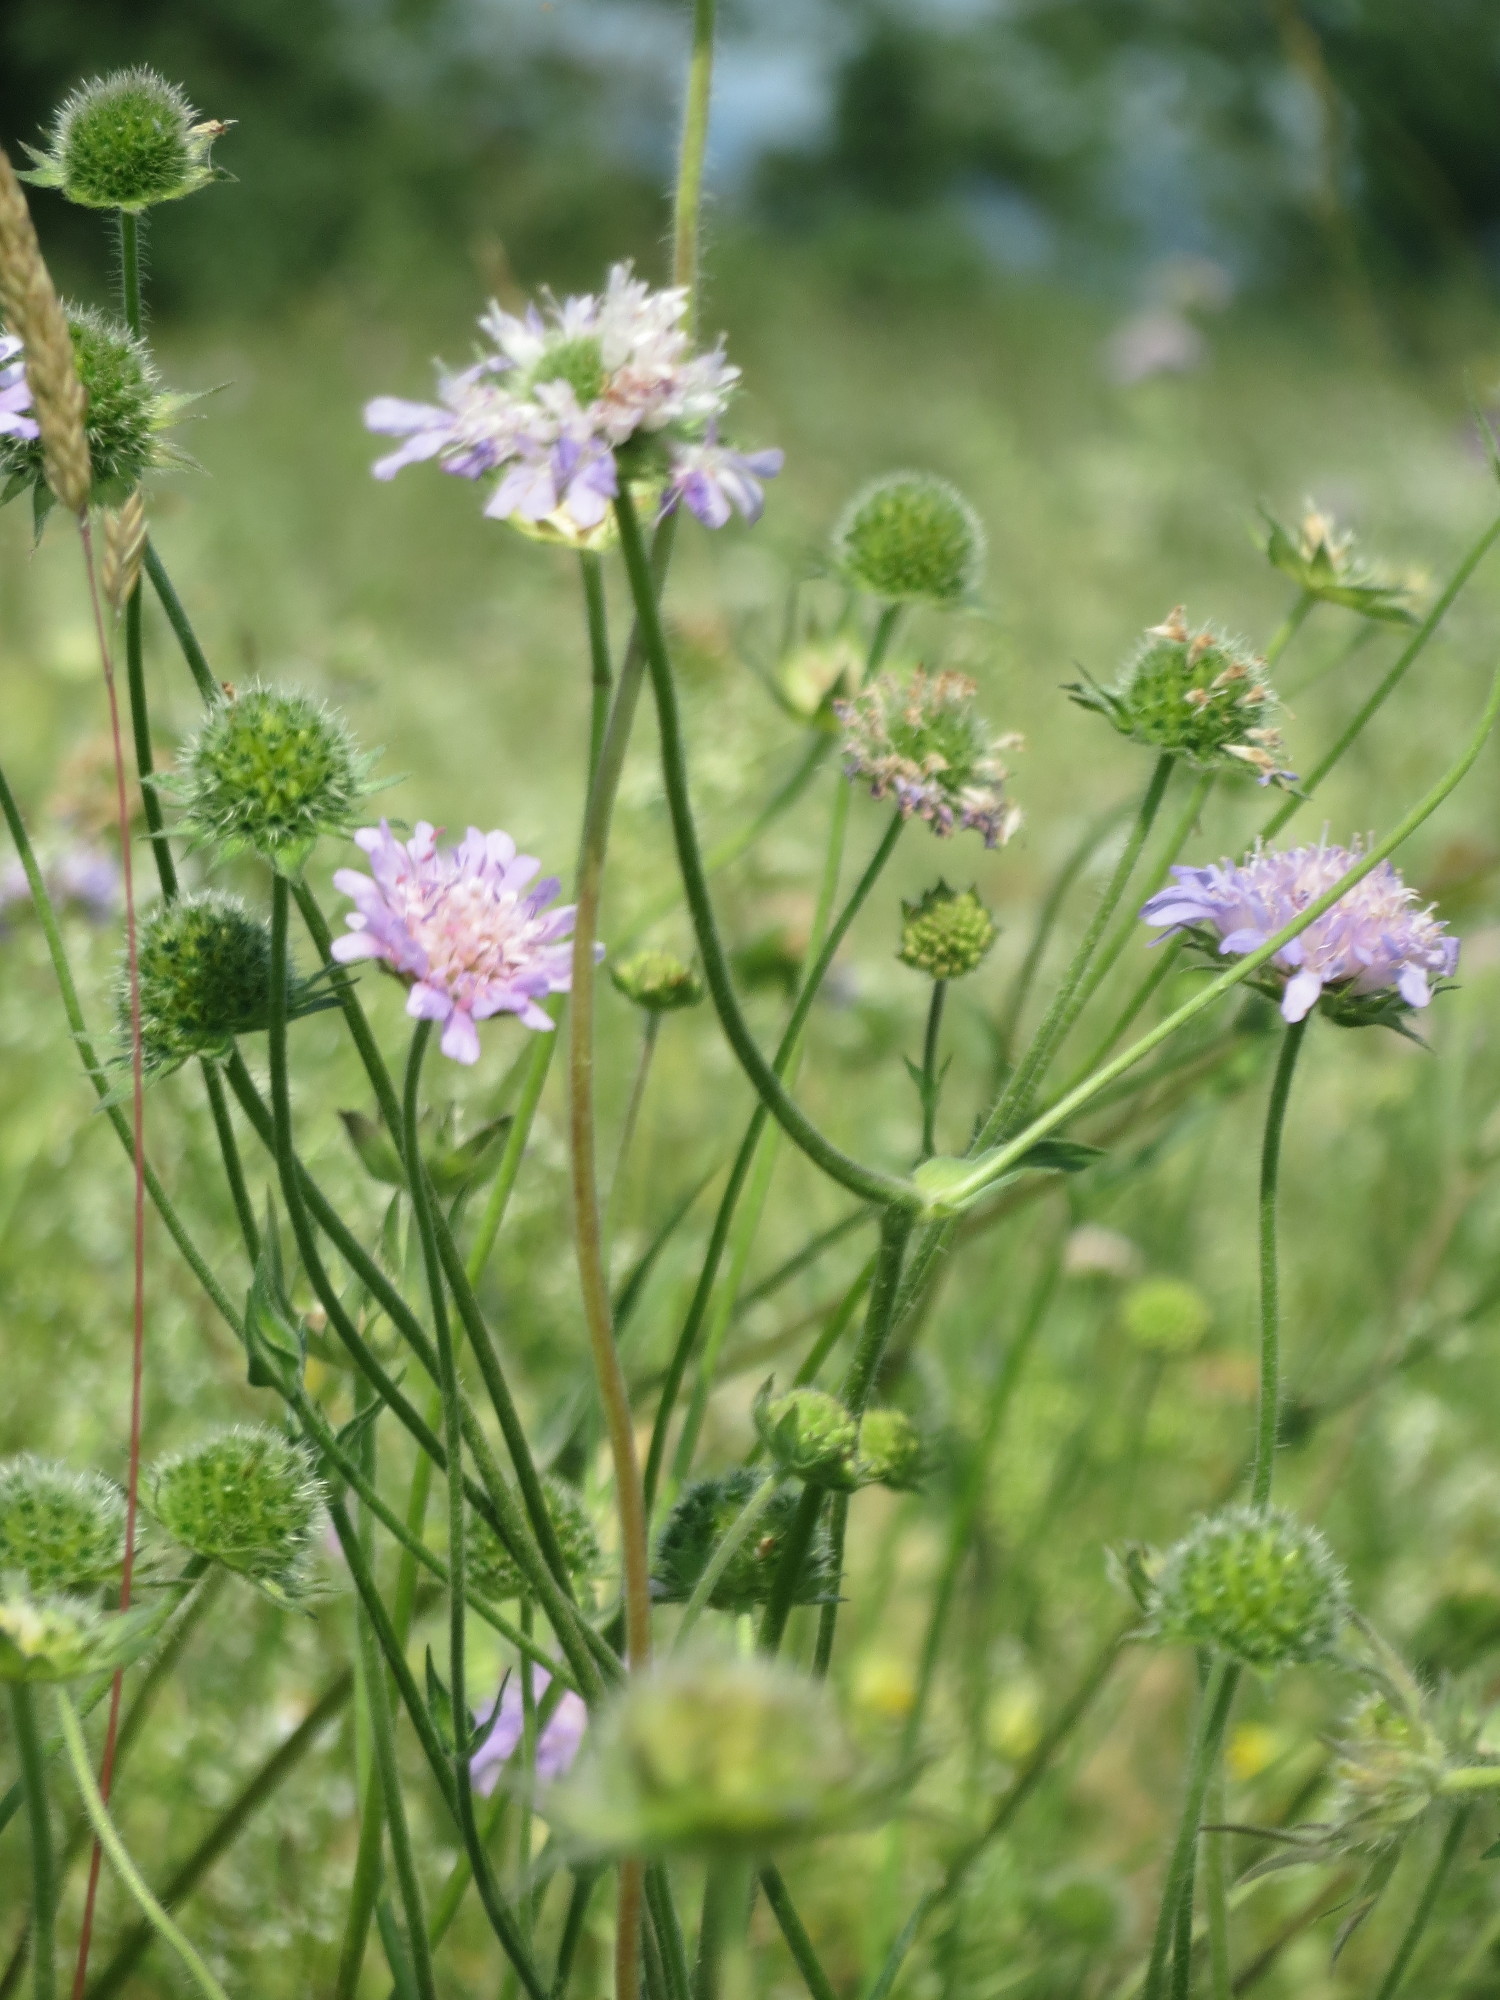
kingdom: Plantae
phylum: Tracheophyta
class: Magnoliopsida
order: Dipsacales
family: Caprifoliaceae
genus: Knautia
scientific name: Knautia arvensis
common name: Field scabiosa
